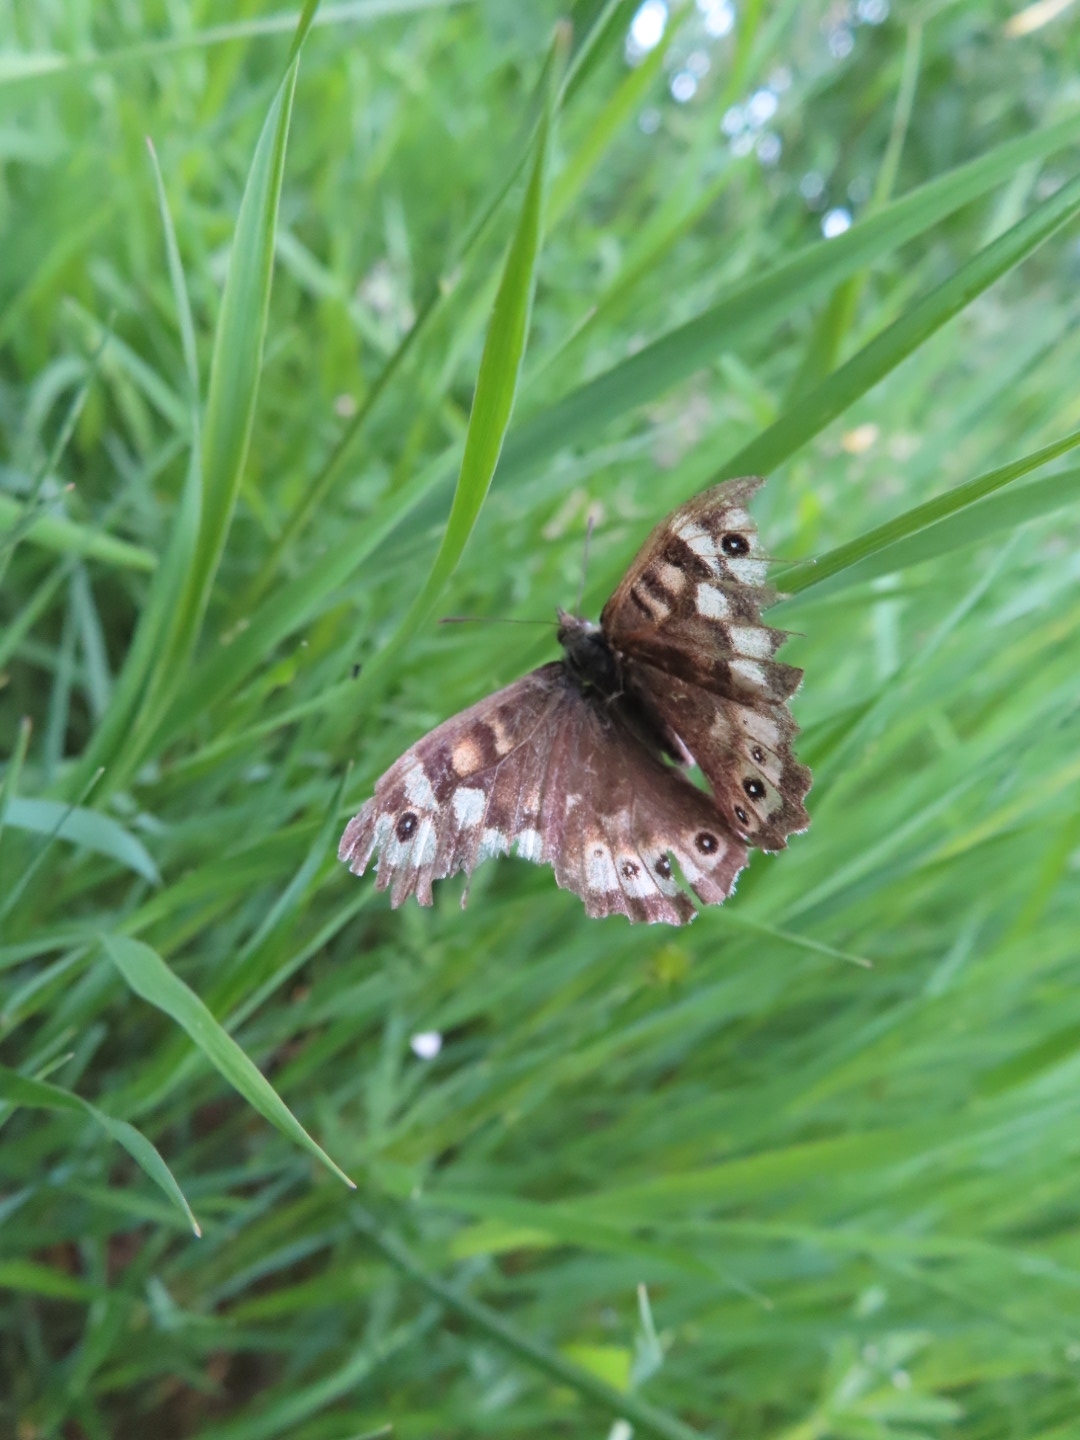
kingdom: Animalia
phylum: Arthropoda
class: Insecta
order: Lepidoptera
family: Nymphalidae
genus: Pararge
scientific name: Pararge aegeria
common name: Speckled wood
